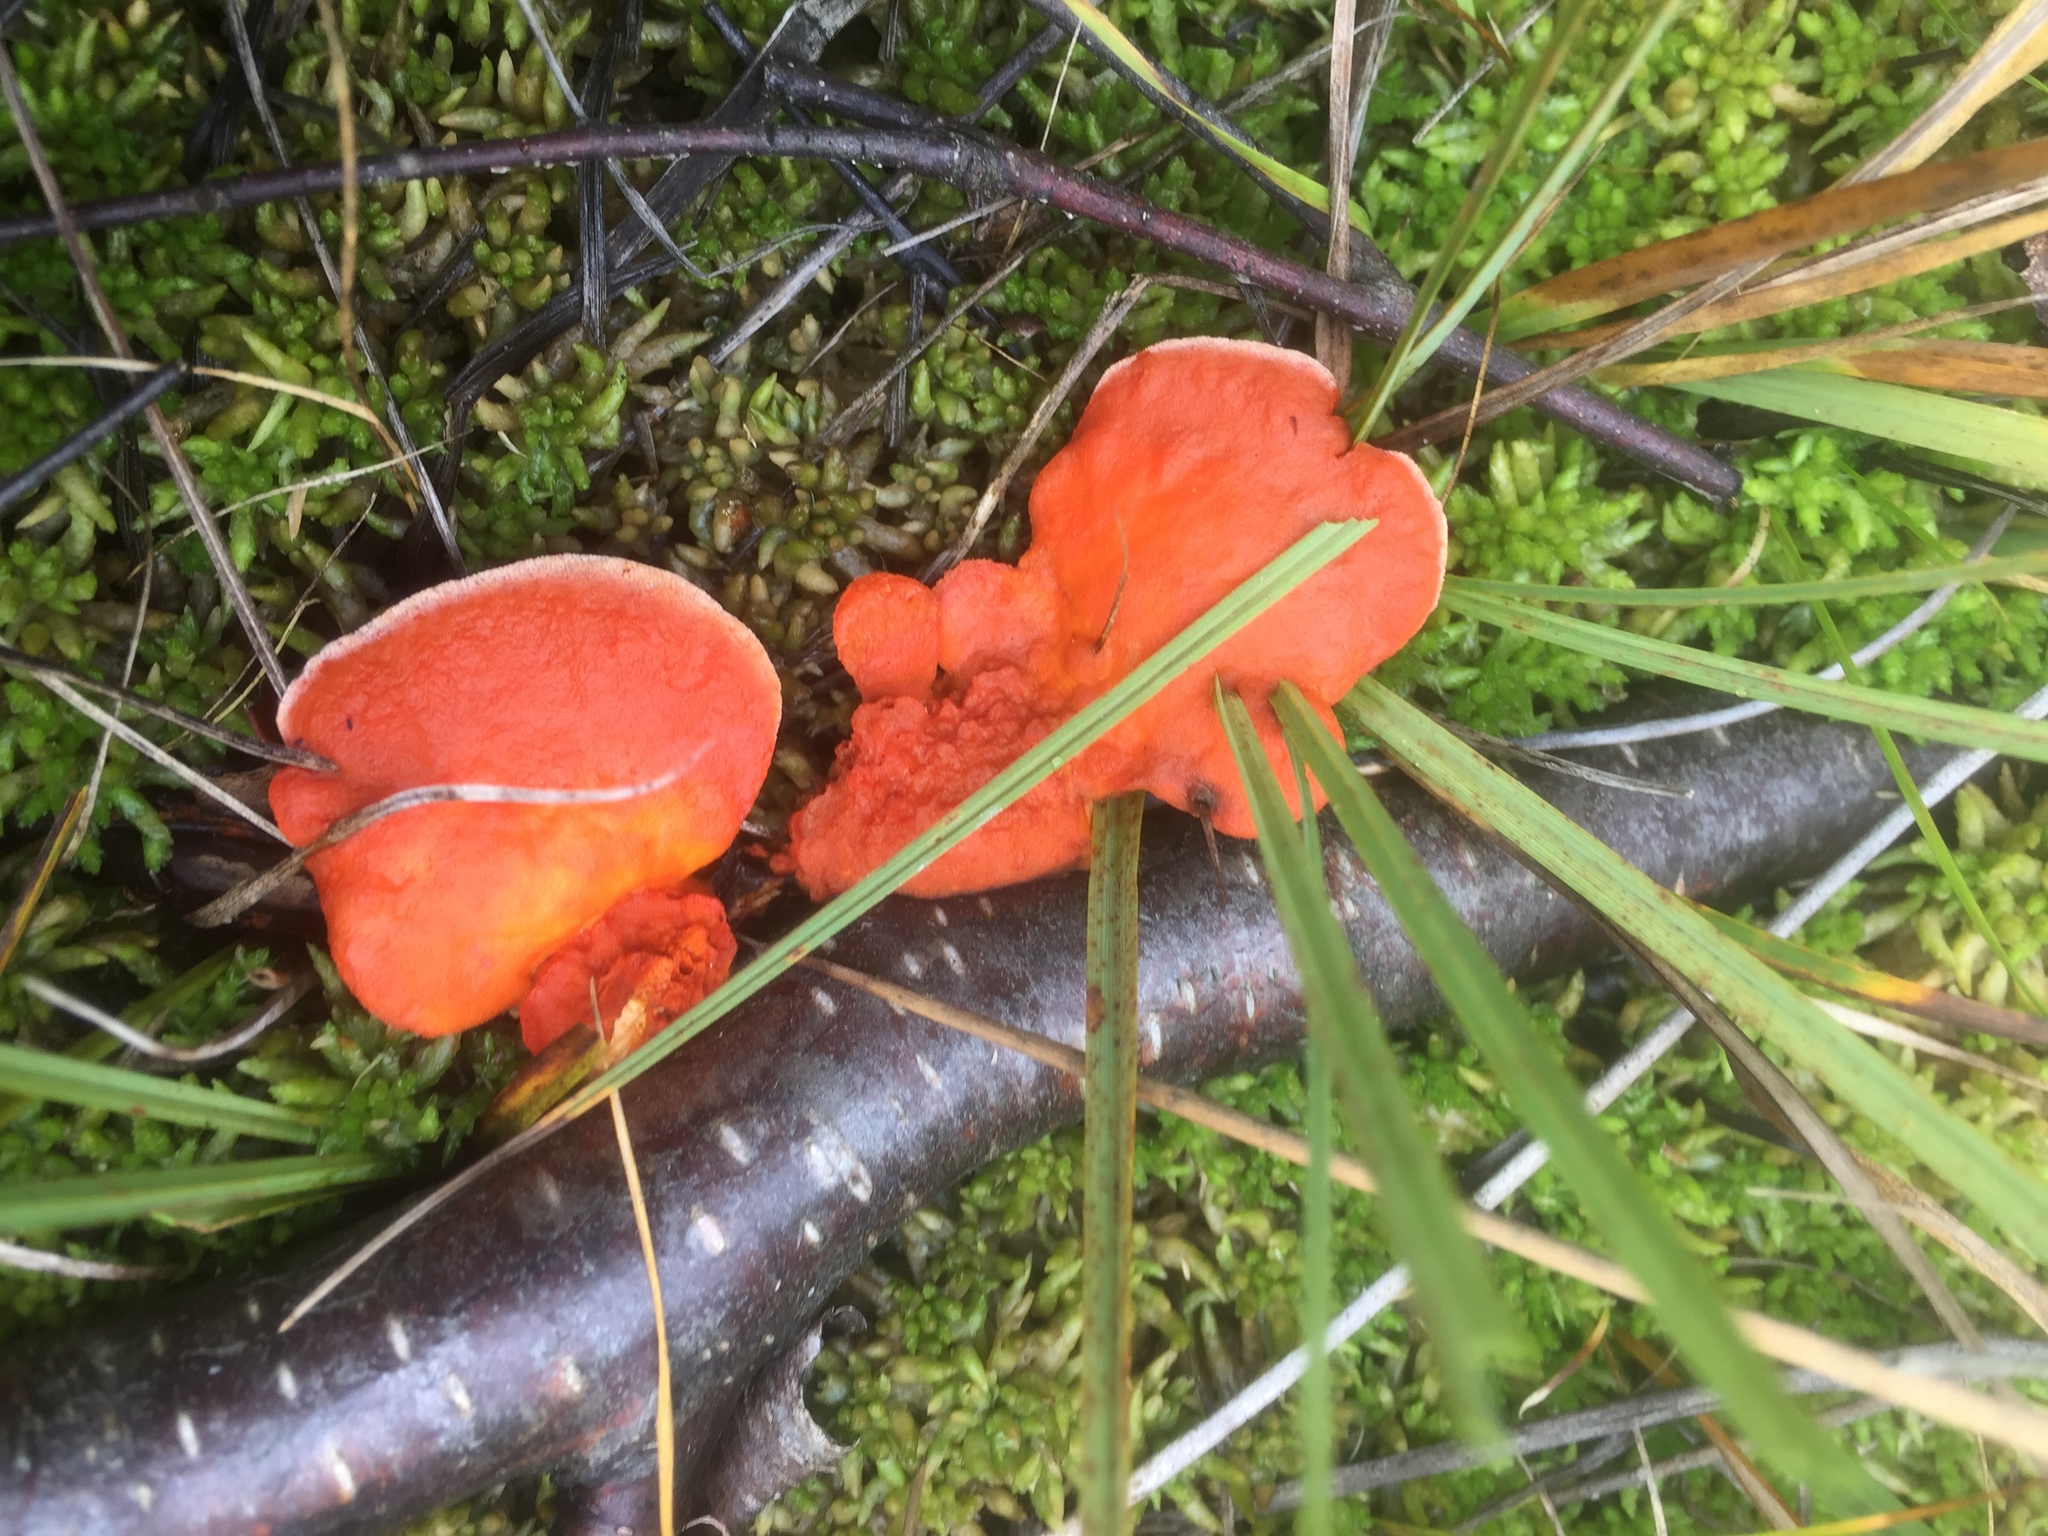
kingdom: Fungi
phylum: Basidiomycota
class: Agaricomycetes
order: Polyporales
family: Polyporaceae
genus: Trametes
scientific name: Trametes cinnabarina
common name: Northern cinnabar polypore
